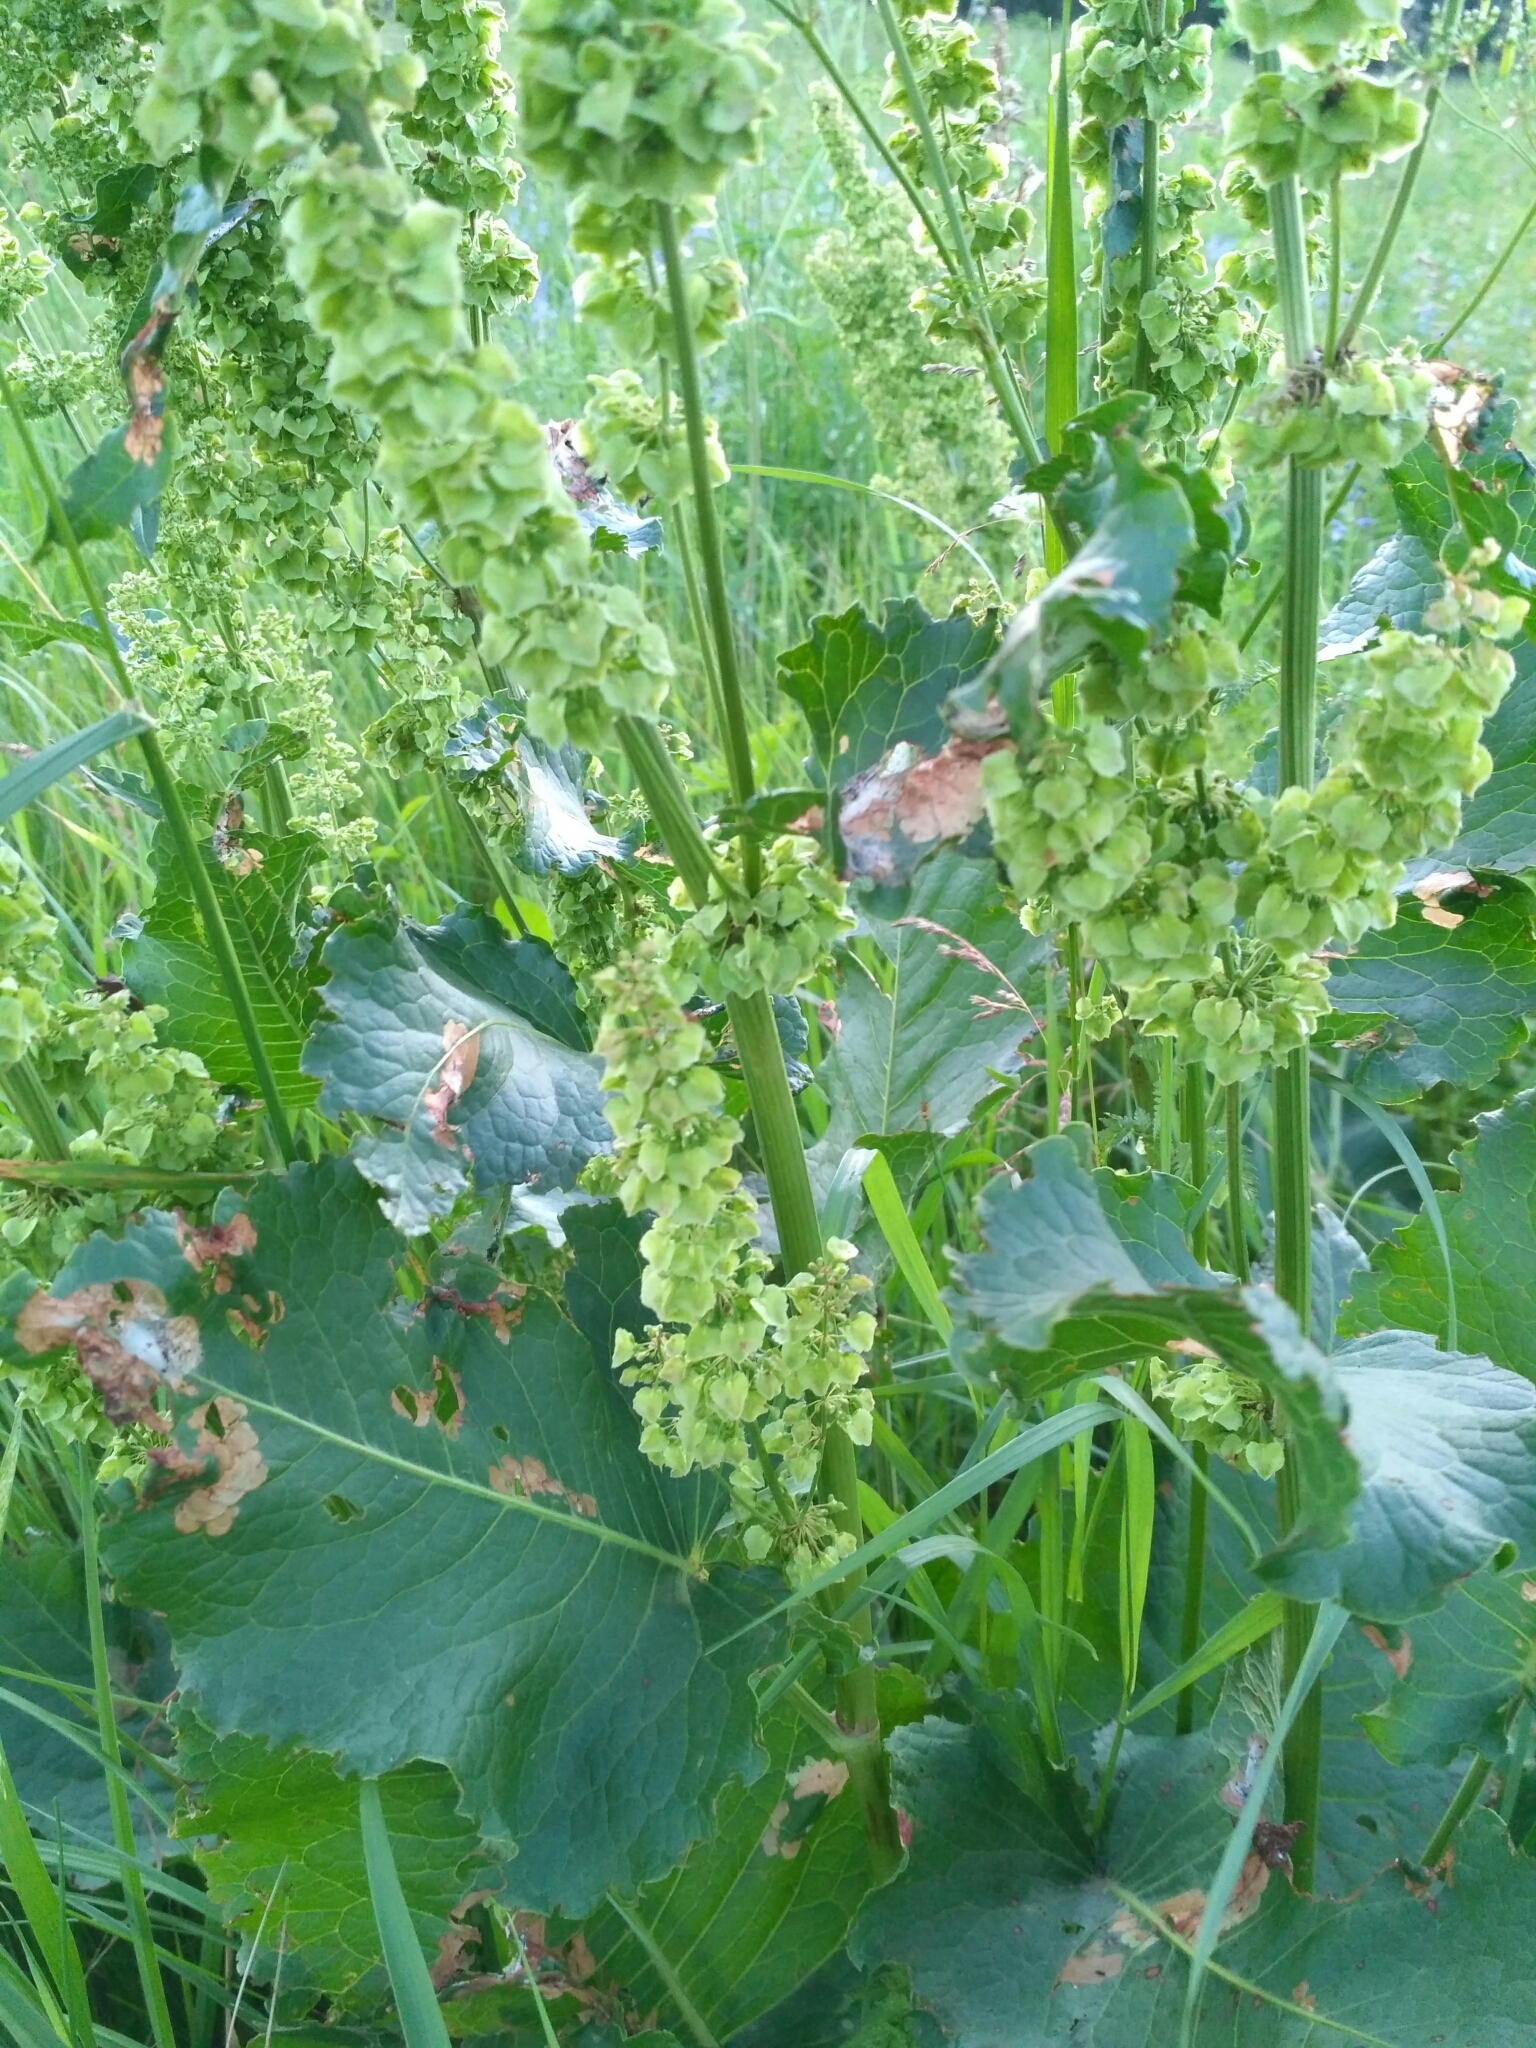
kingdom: Plantae
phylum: Tracheophyta
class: Magnoliopsida
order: Caryophyllales
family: Polygonaceae
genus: Rumex
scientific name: Rumex confertus
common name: Russian dock
